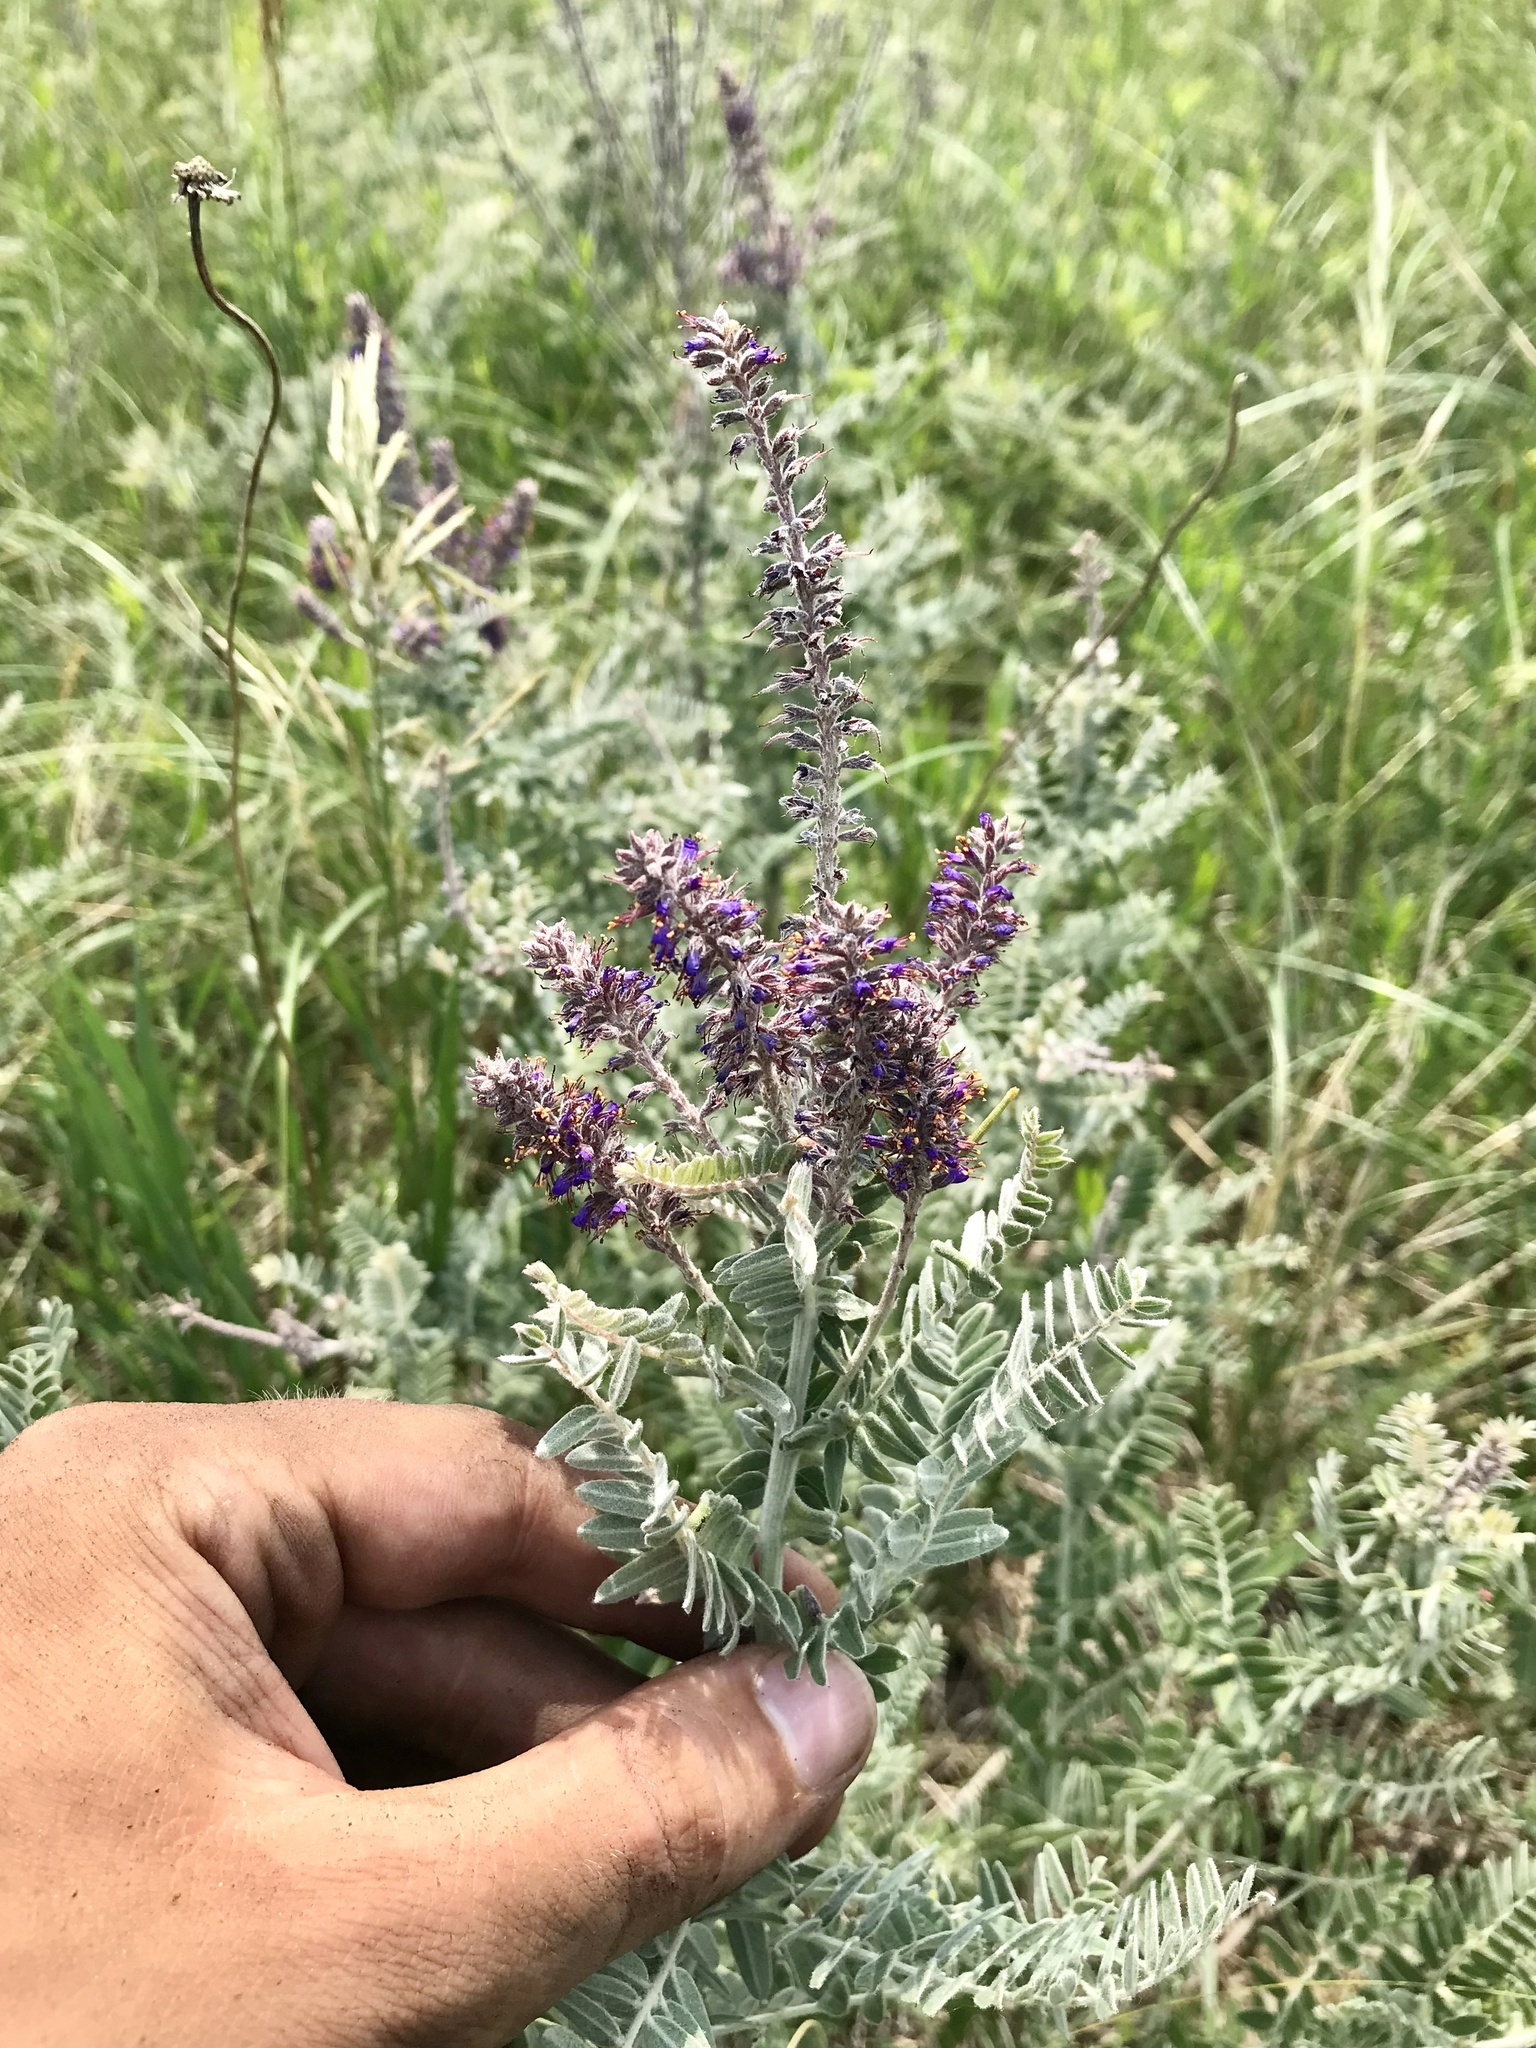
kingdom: Plantae
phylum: Tracheophyta
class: Magnoliopsida
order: Fabales
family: Fabaceae
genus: Amorpha
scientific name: Amorpha canescens
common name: Leadplant
